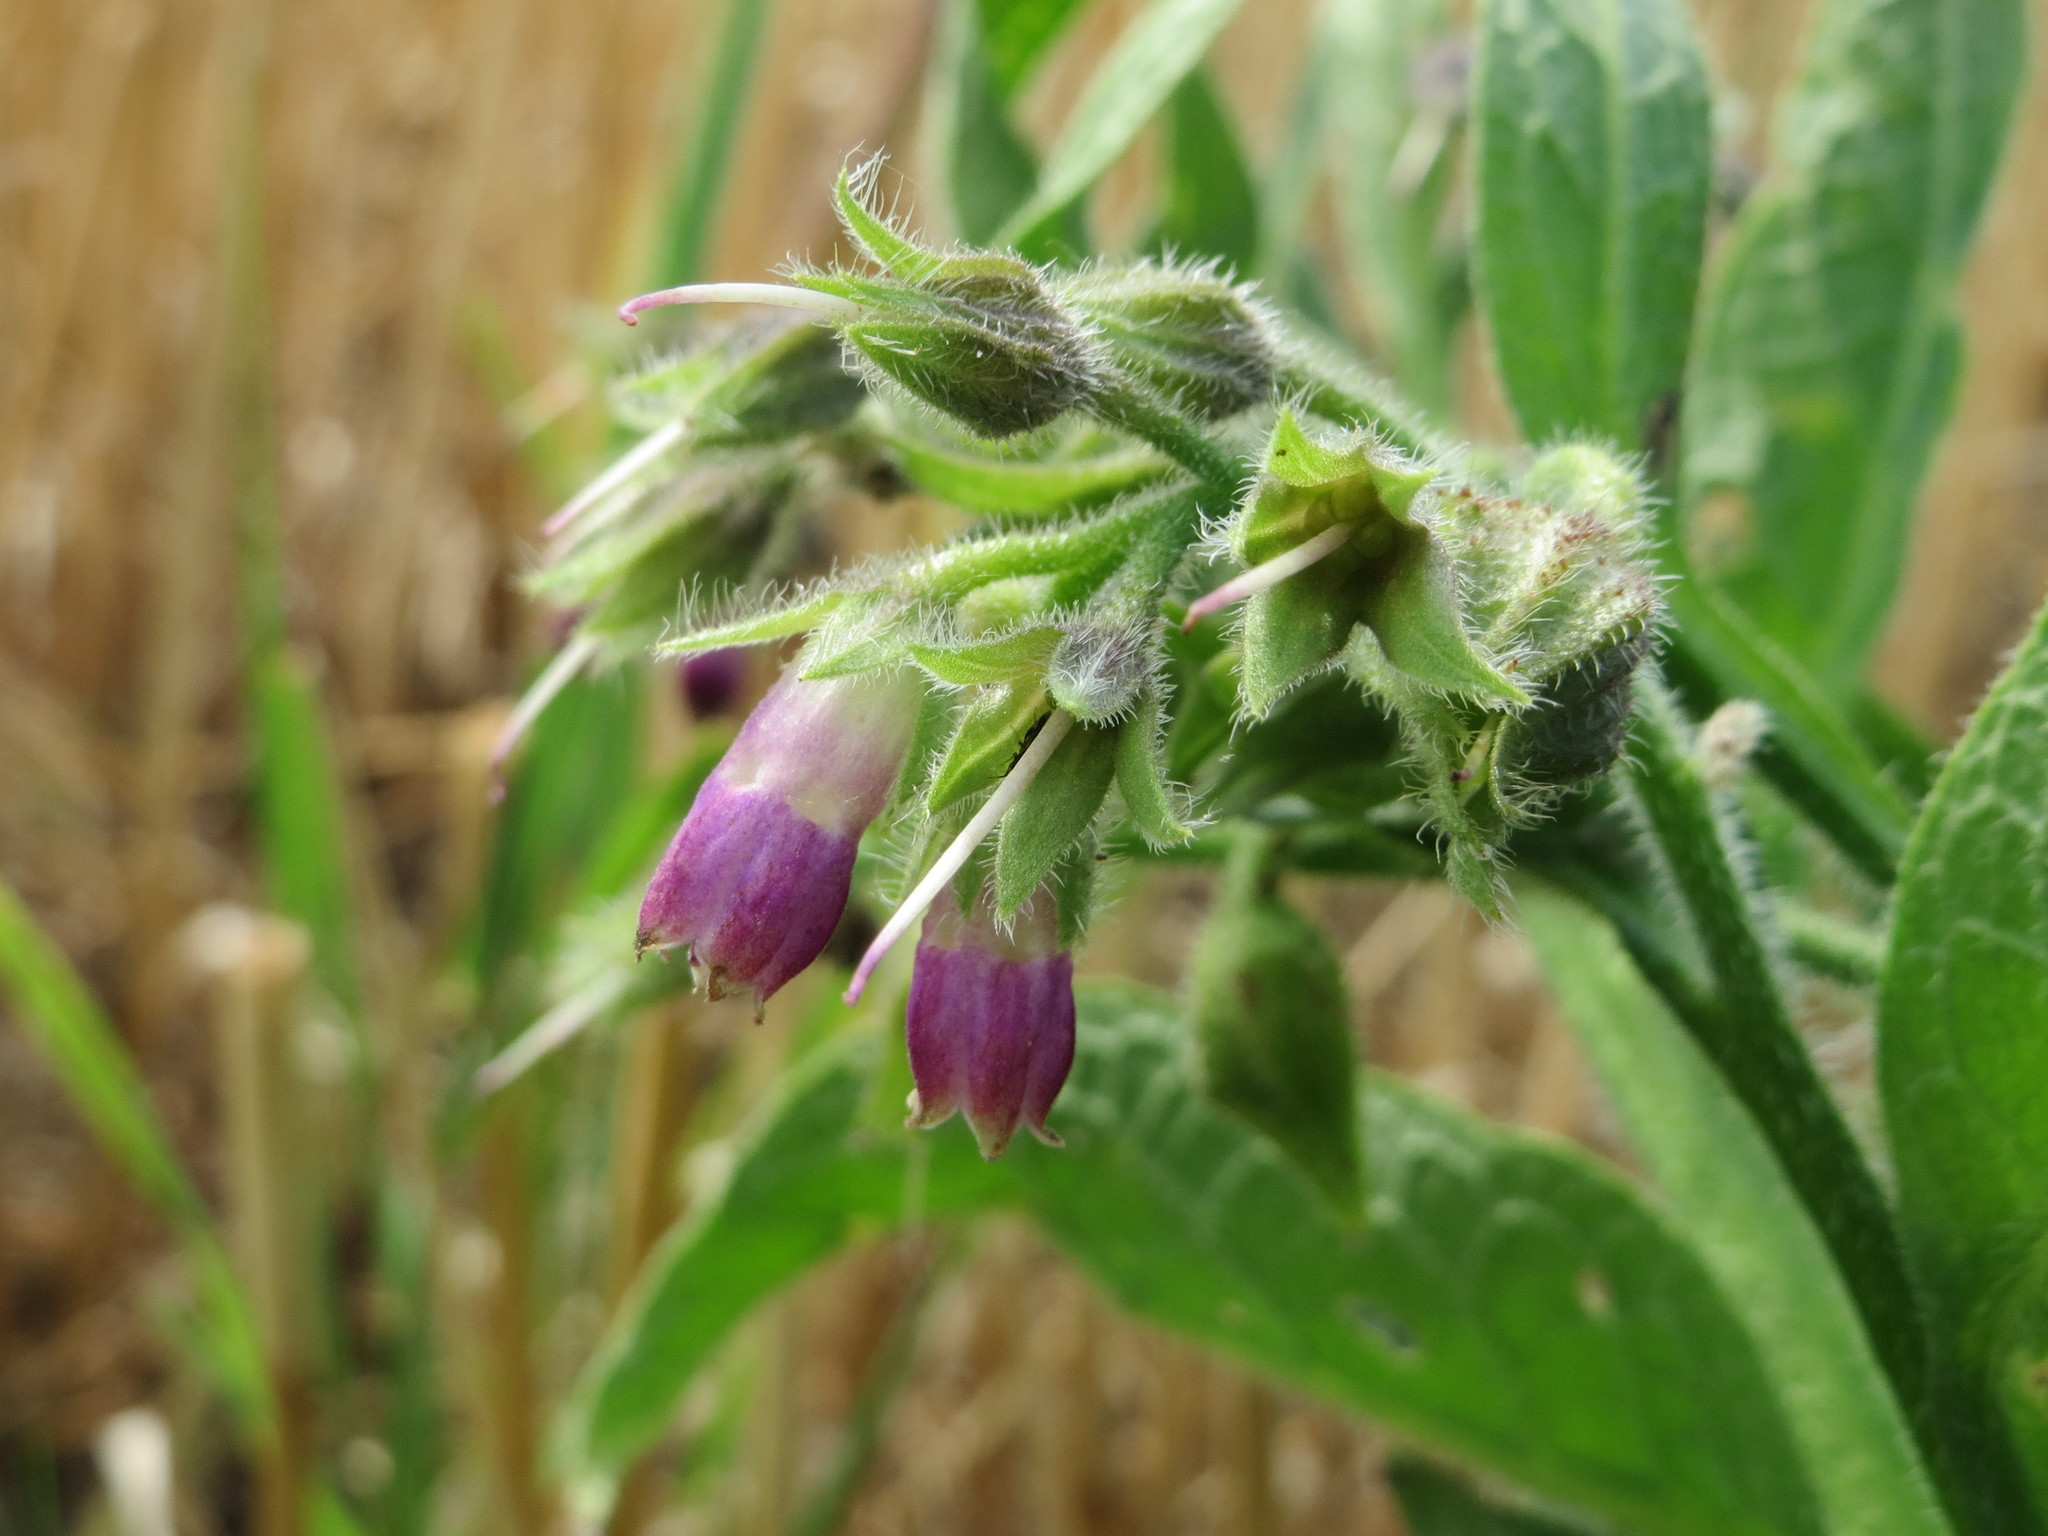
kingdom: Plantae
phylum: Tracheophyta
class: Magnoliopsida
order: Boraginales
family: Boraginaceae
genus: Symphytum
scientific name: Symphytum officinale
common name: Common comfrey
